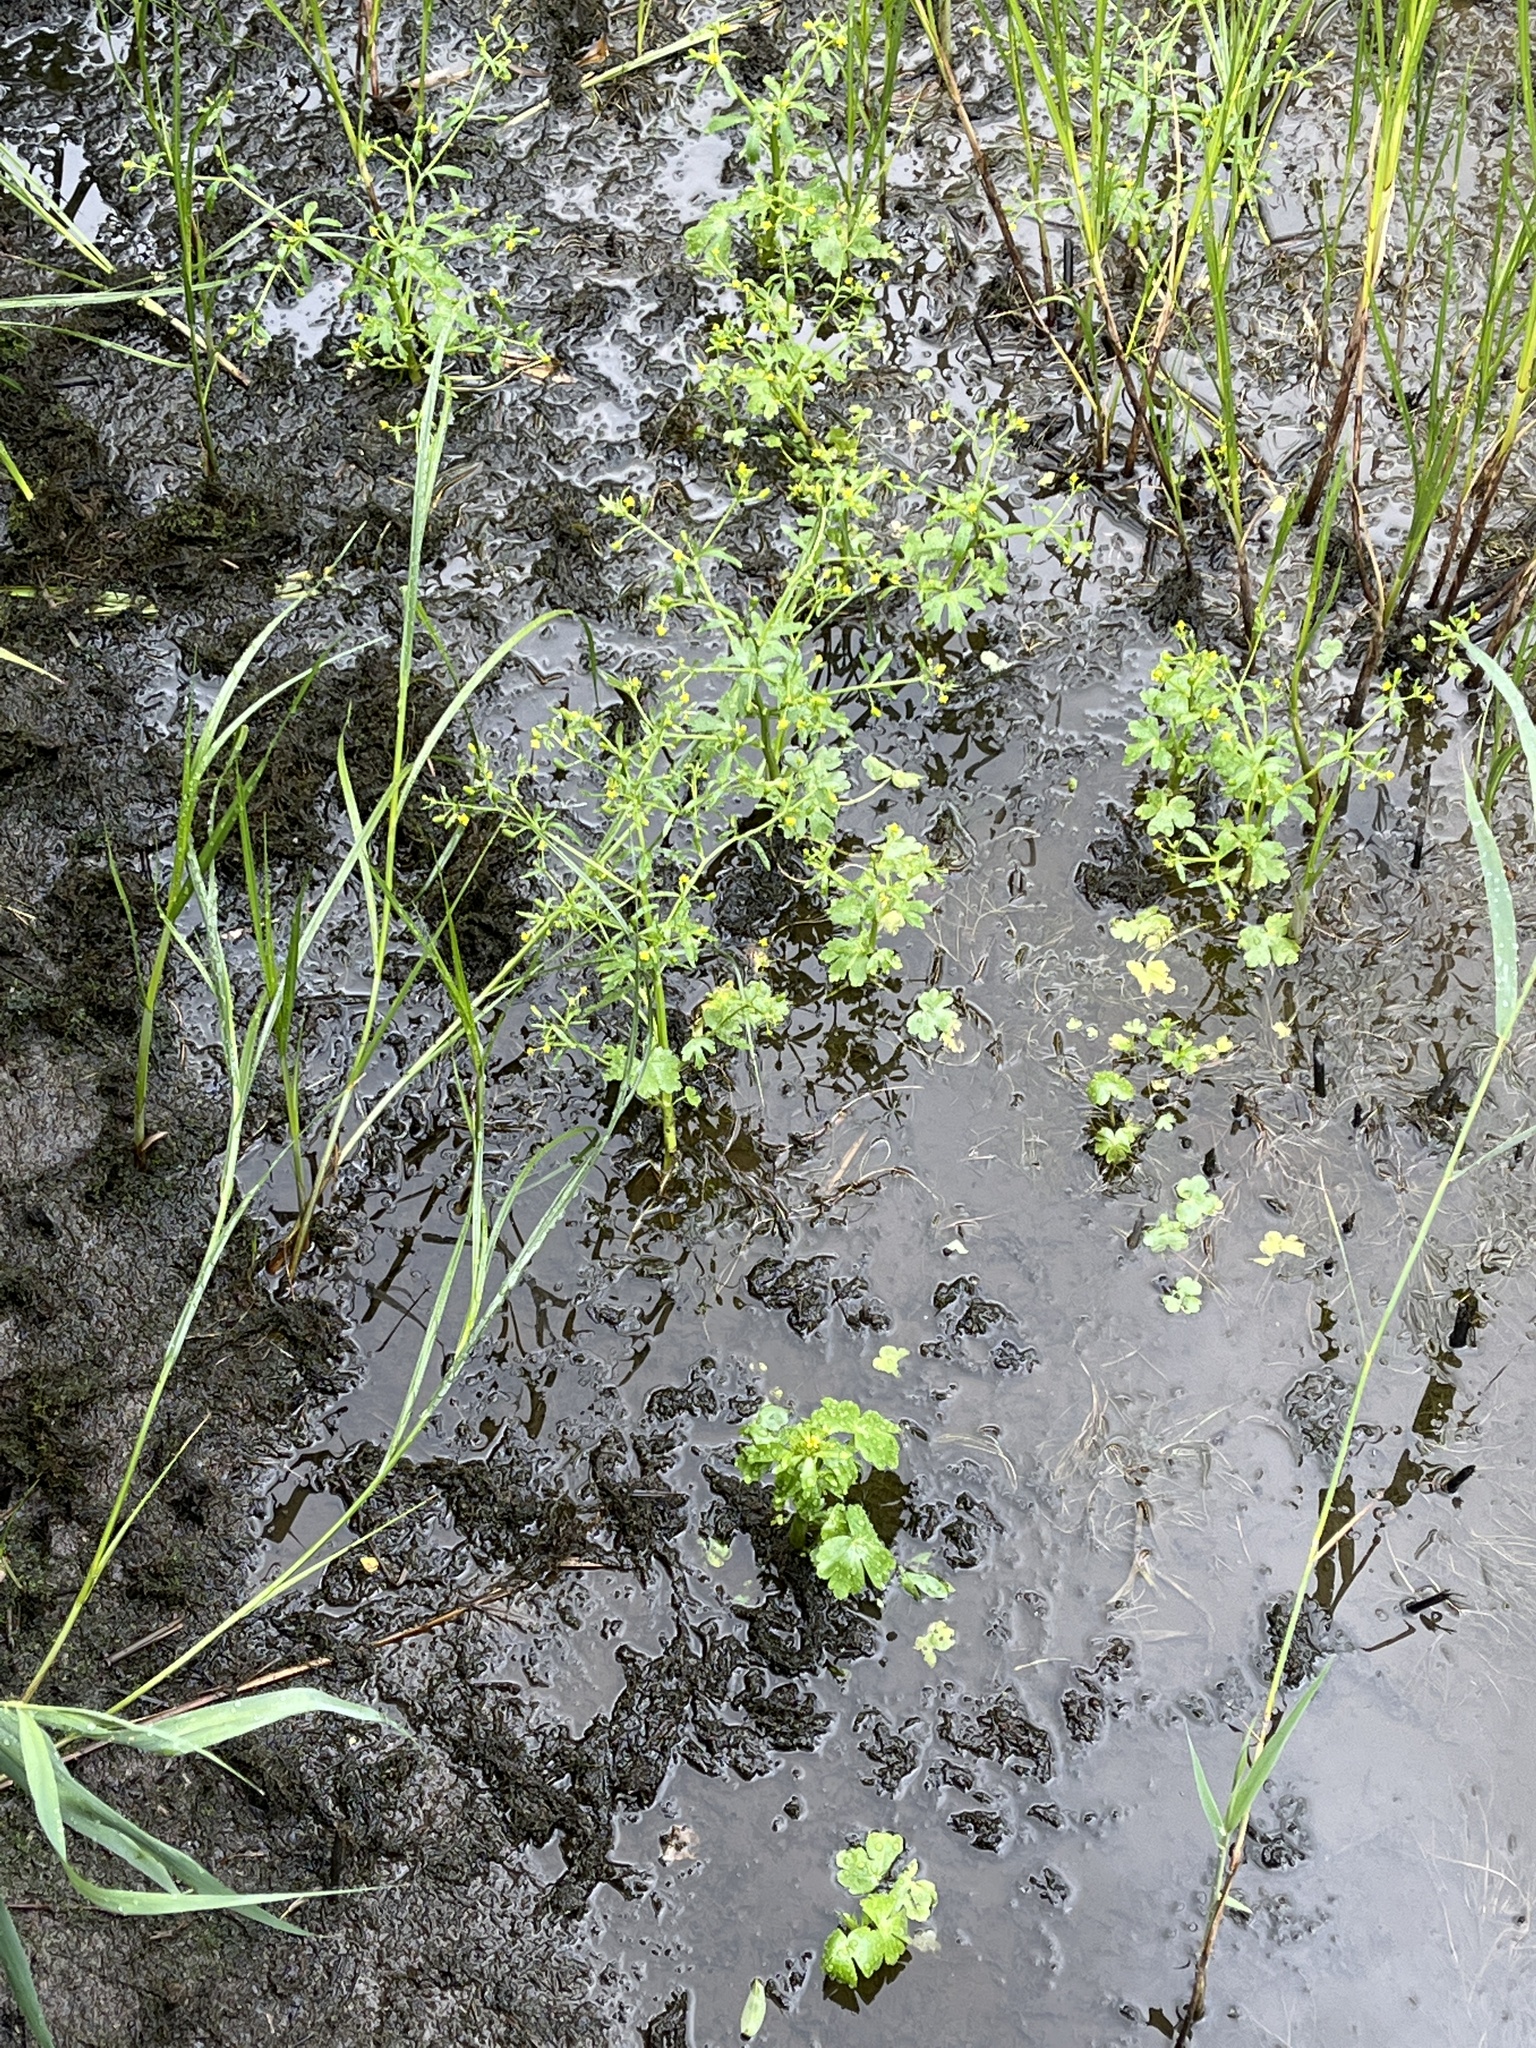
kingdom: Plantae
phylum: Tracheophyta
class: Magnoliopsida
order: Ranunculales
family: Ranunculaceae
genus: Ranunculus
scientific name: Ranunculus sceleratus
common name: Celery-leaved buttercup
